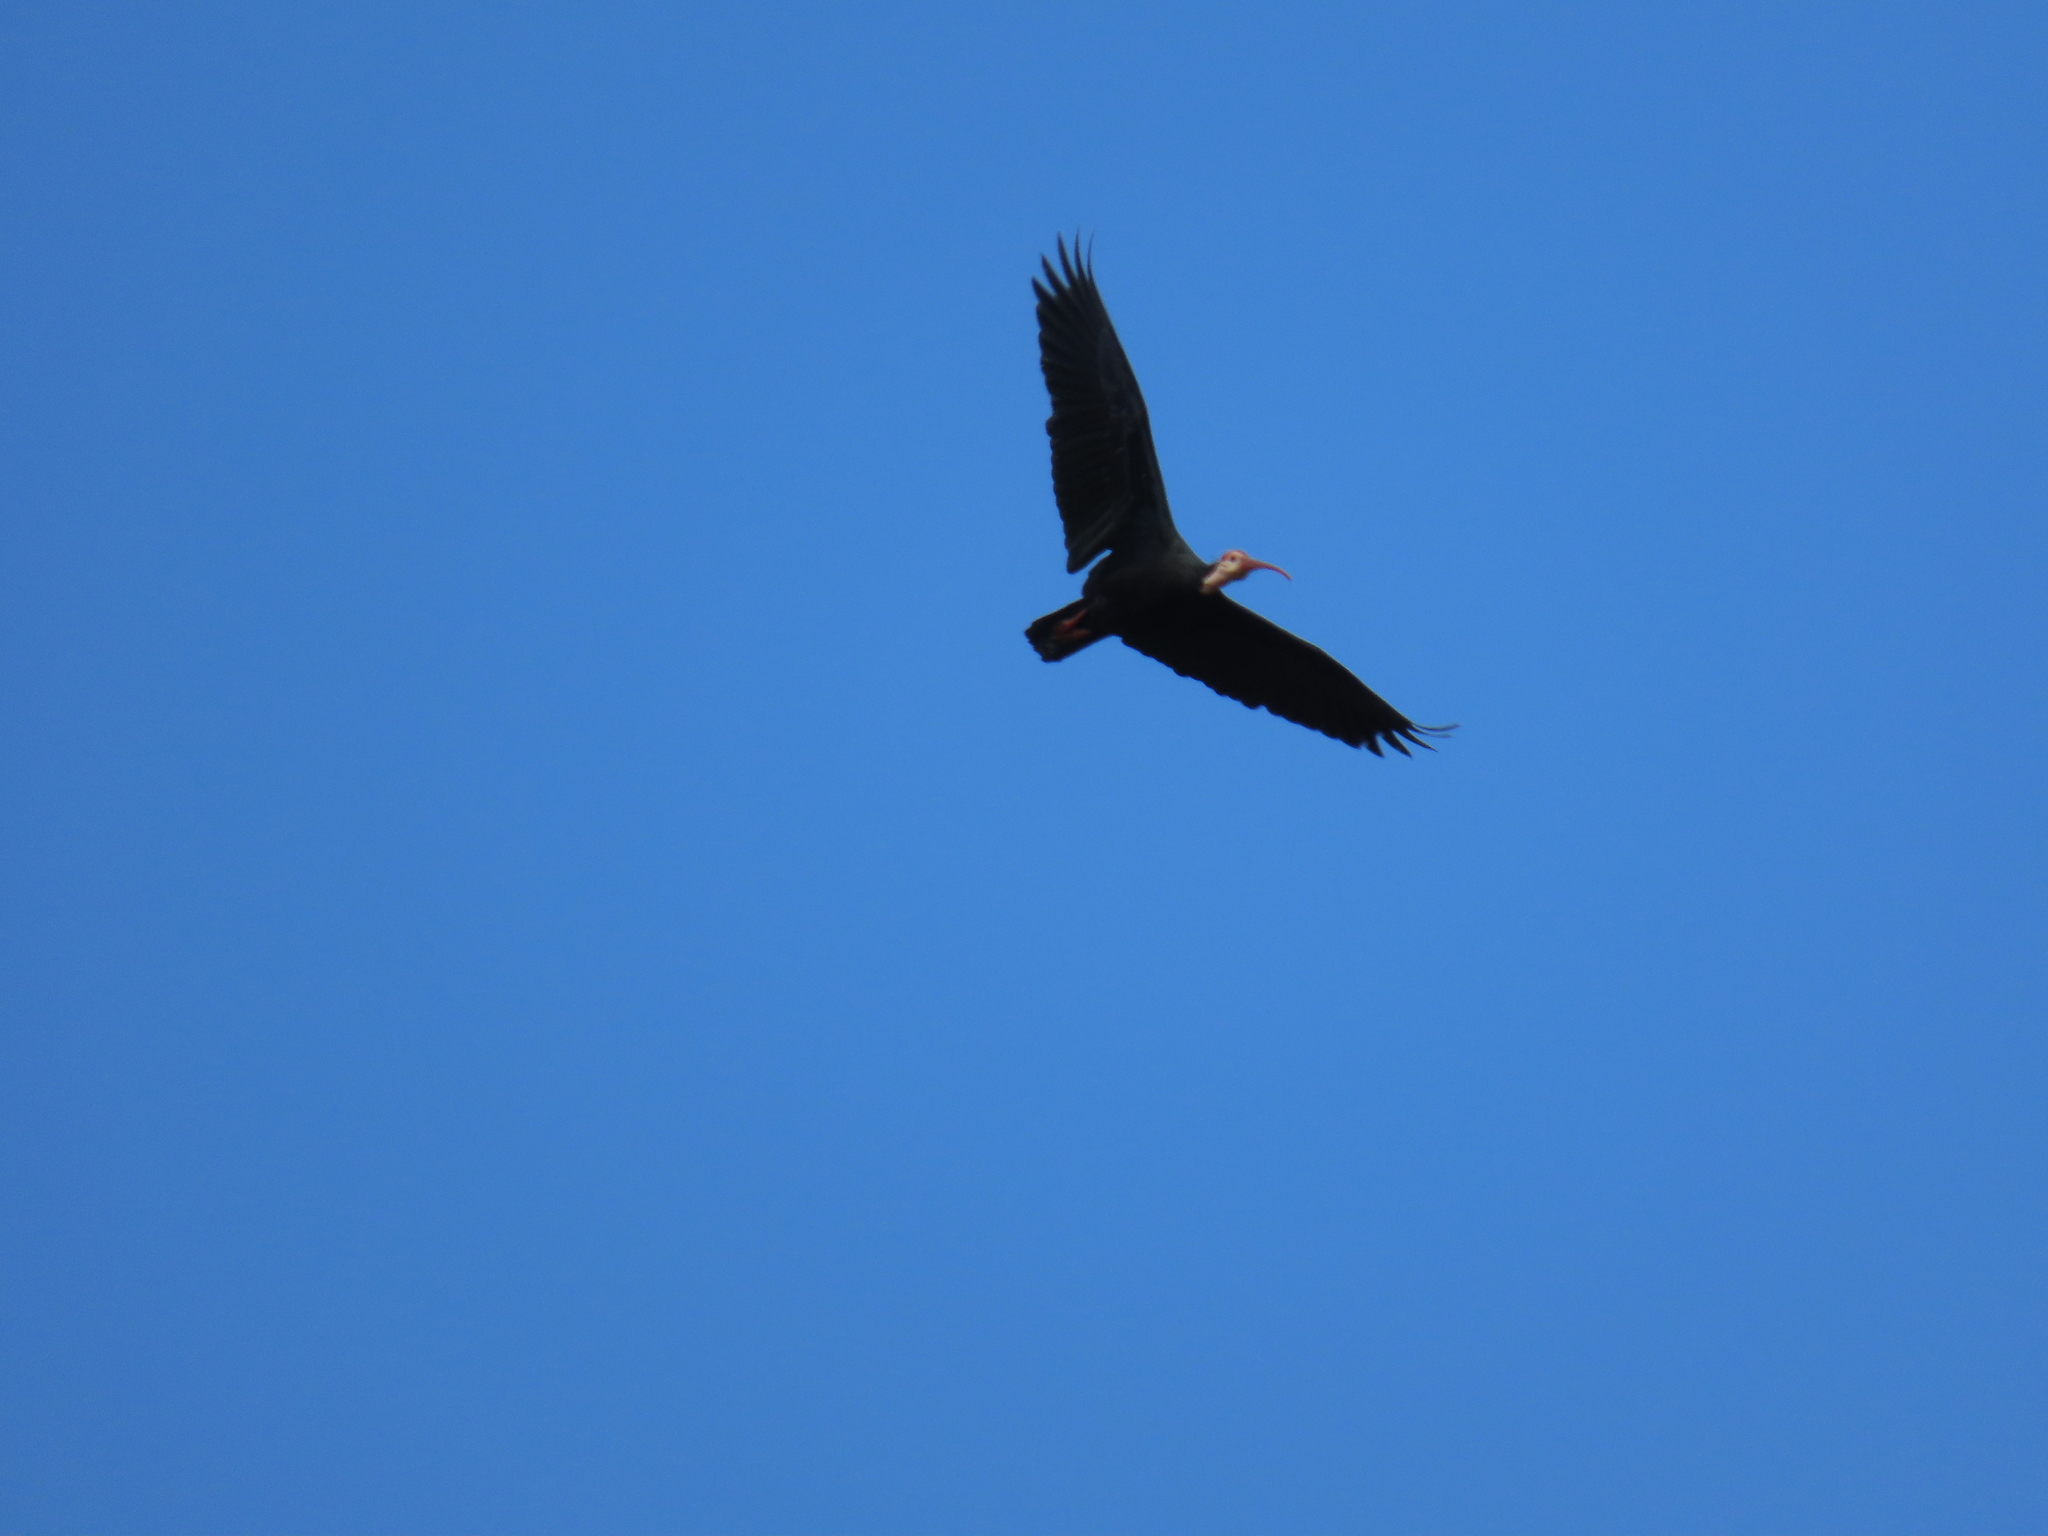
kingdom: Animalia
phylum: Chordata
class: Aves
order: Pelecaniformes
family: Threskiornithidae
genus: Geronticus
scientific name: Geronticus calvus
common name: Southern bald ibis
